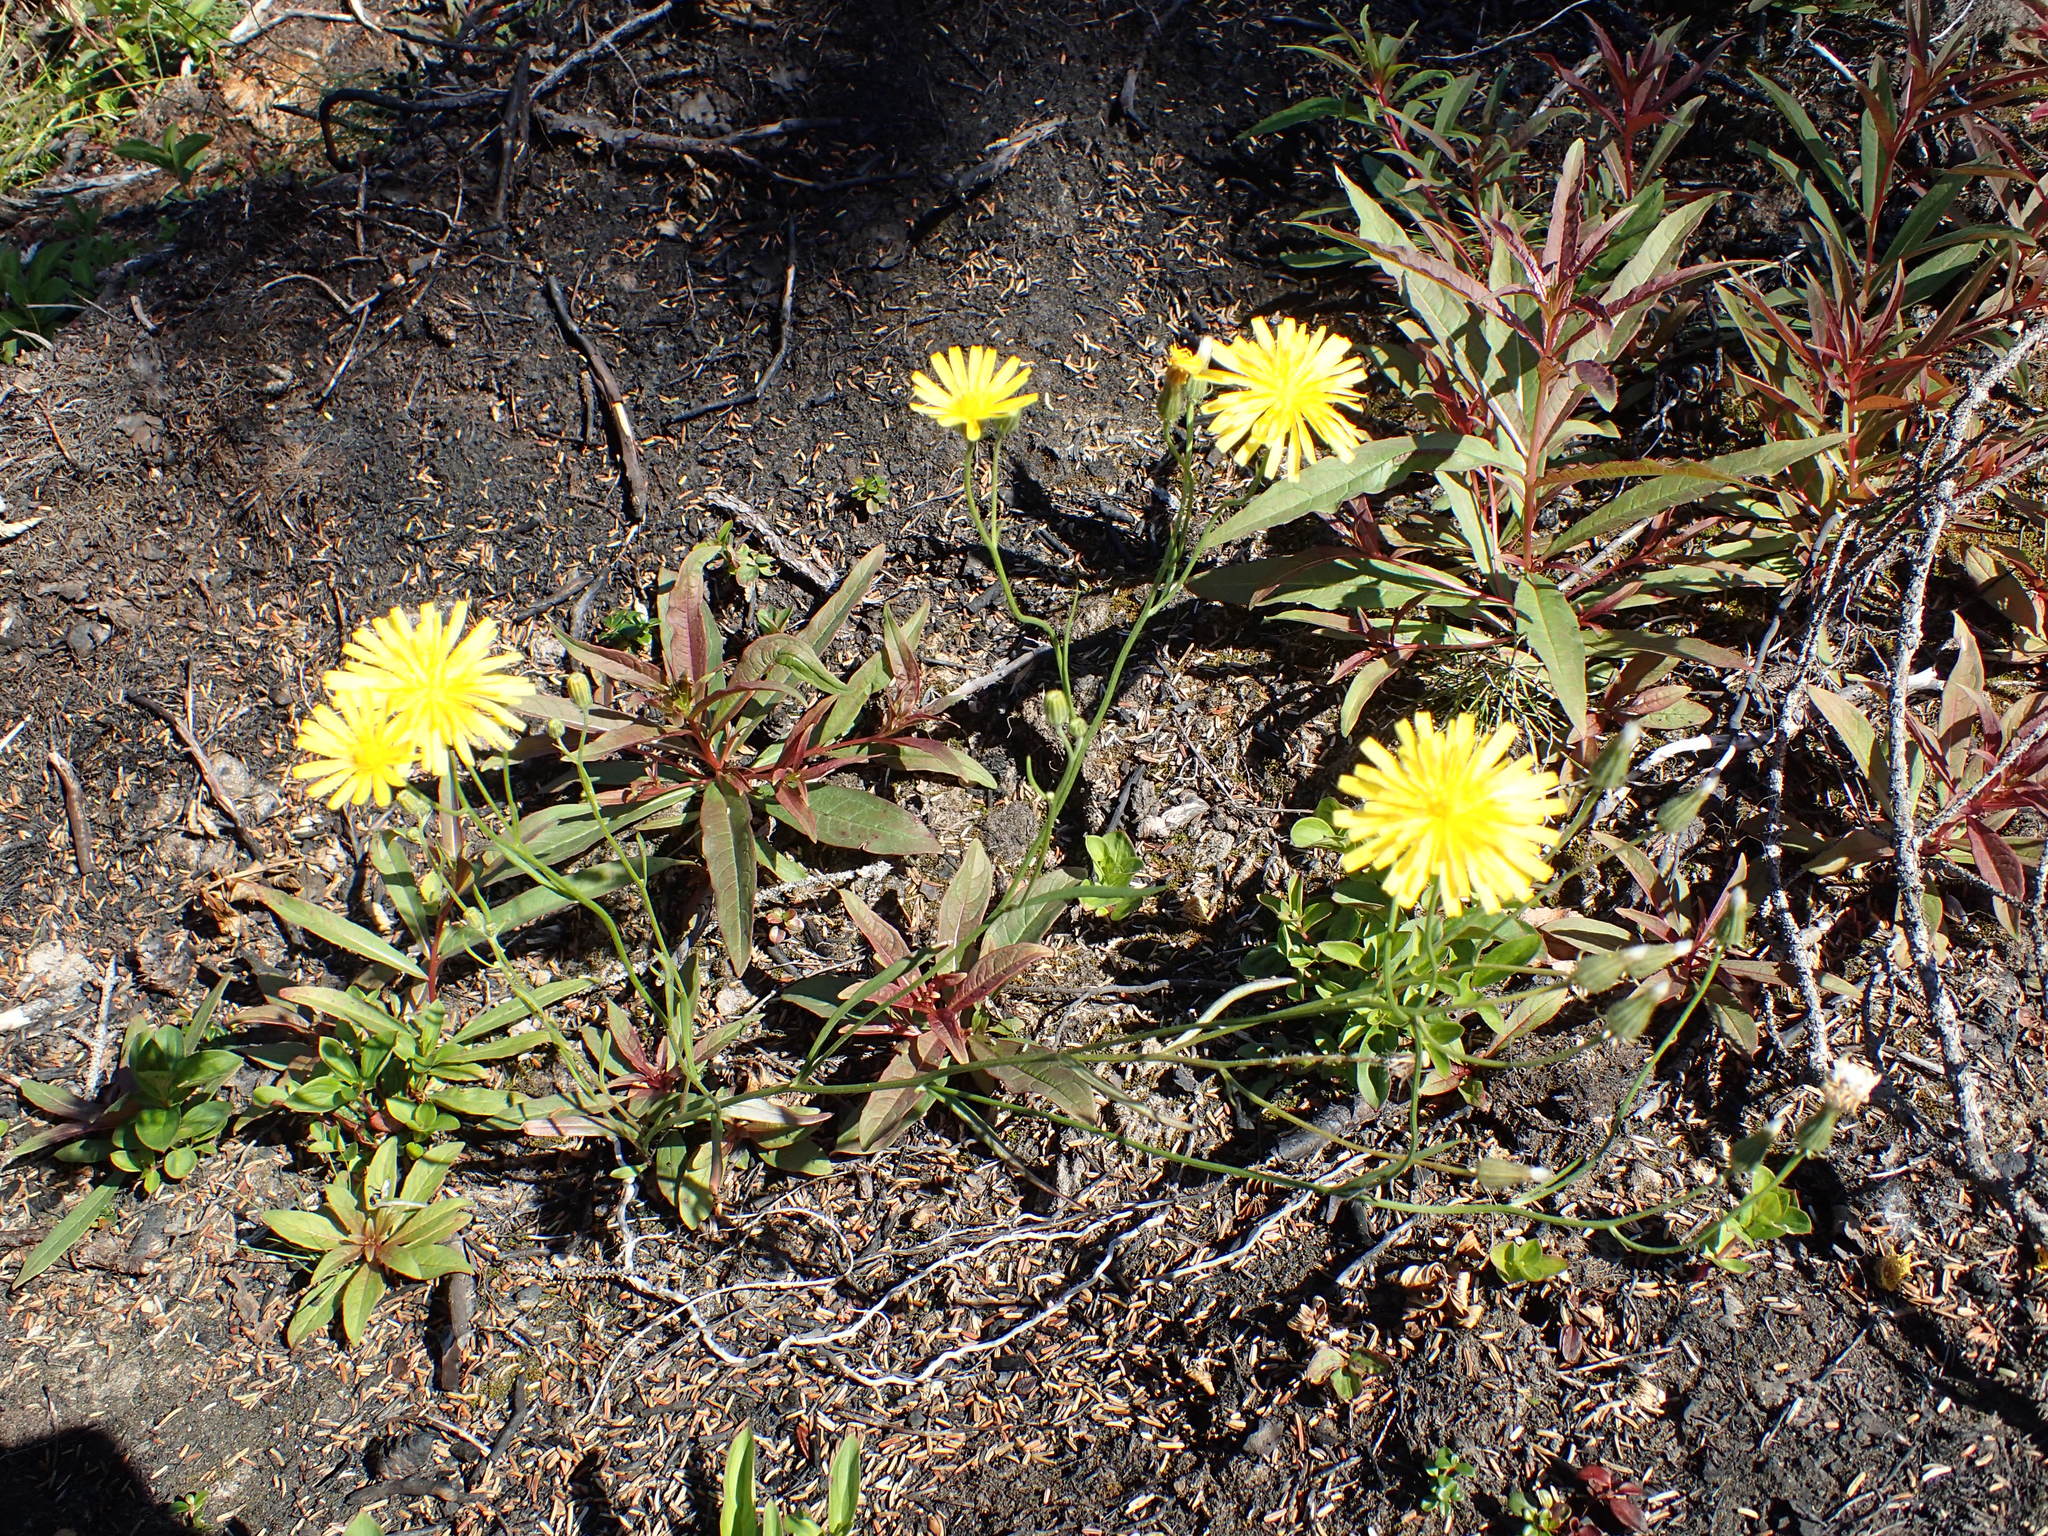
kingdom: Plantae
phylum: Tracheophyta
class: Magnoliopsida
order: Asterales
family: Asteraceae
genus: Crepis
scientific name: Crepis tectorum
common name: Narrow-leaved hawk's-beard
